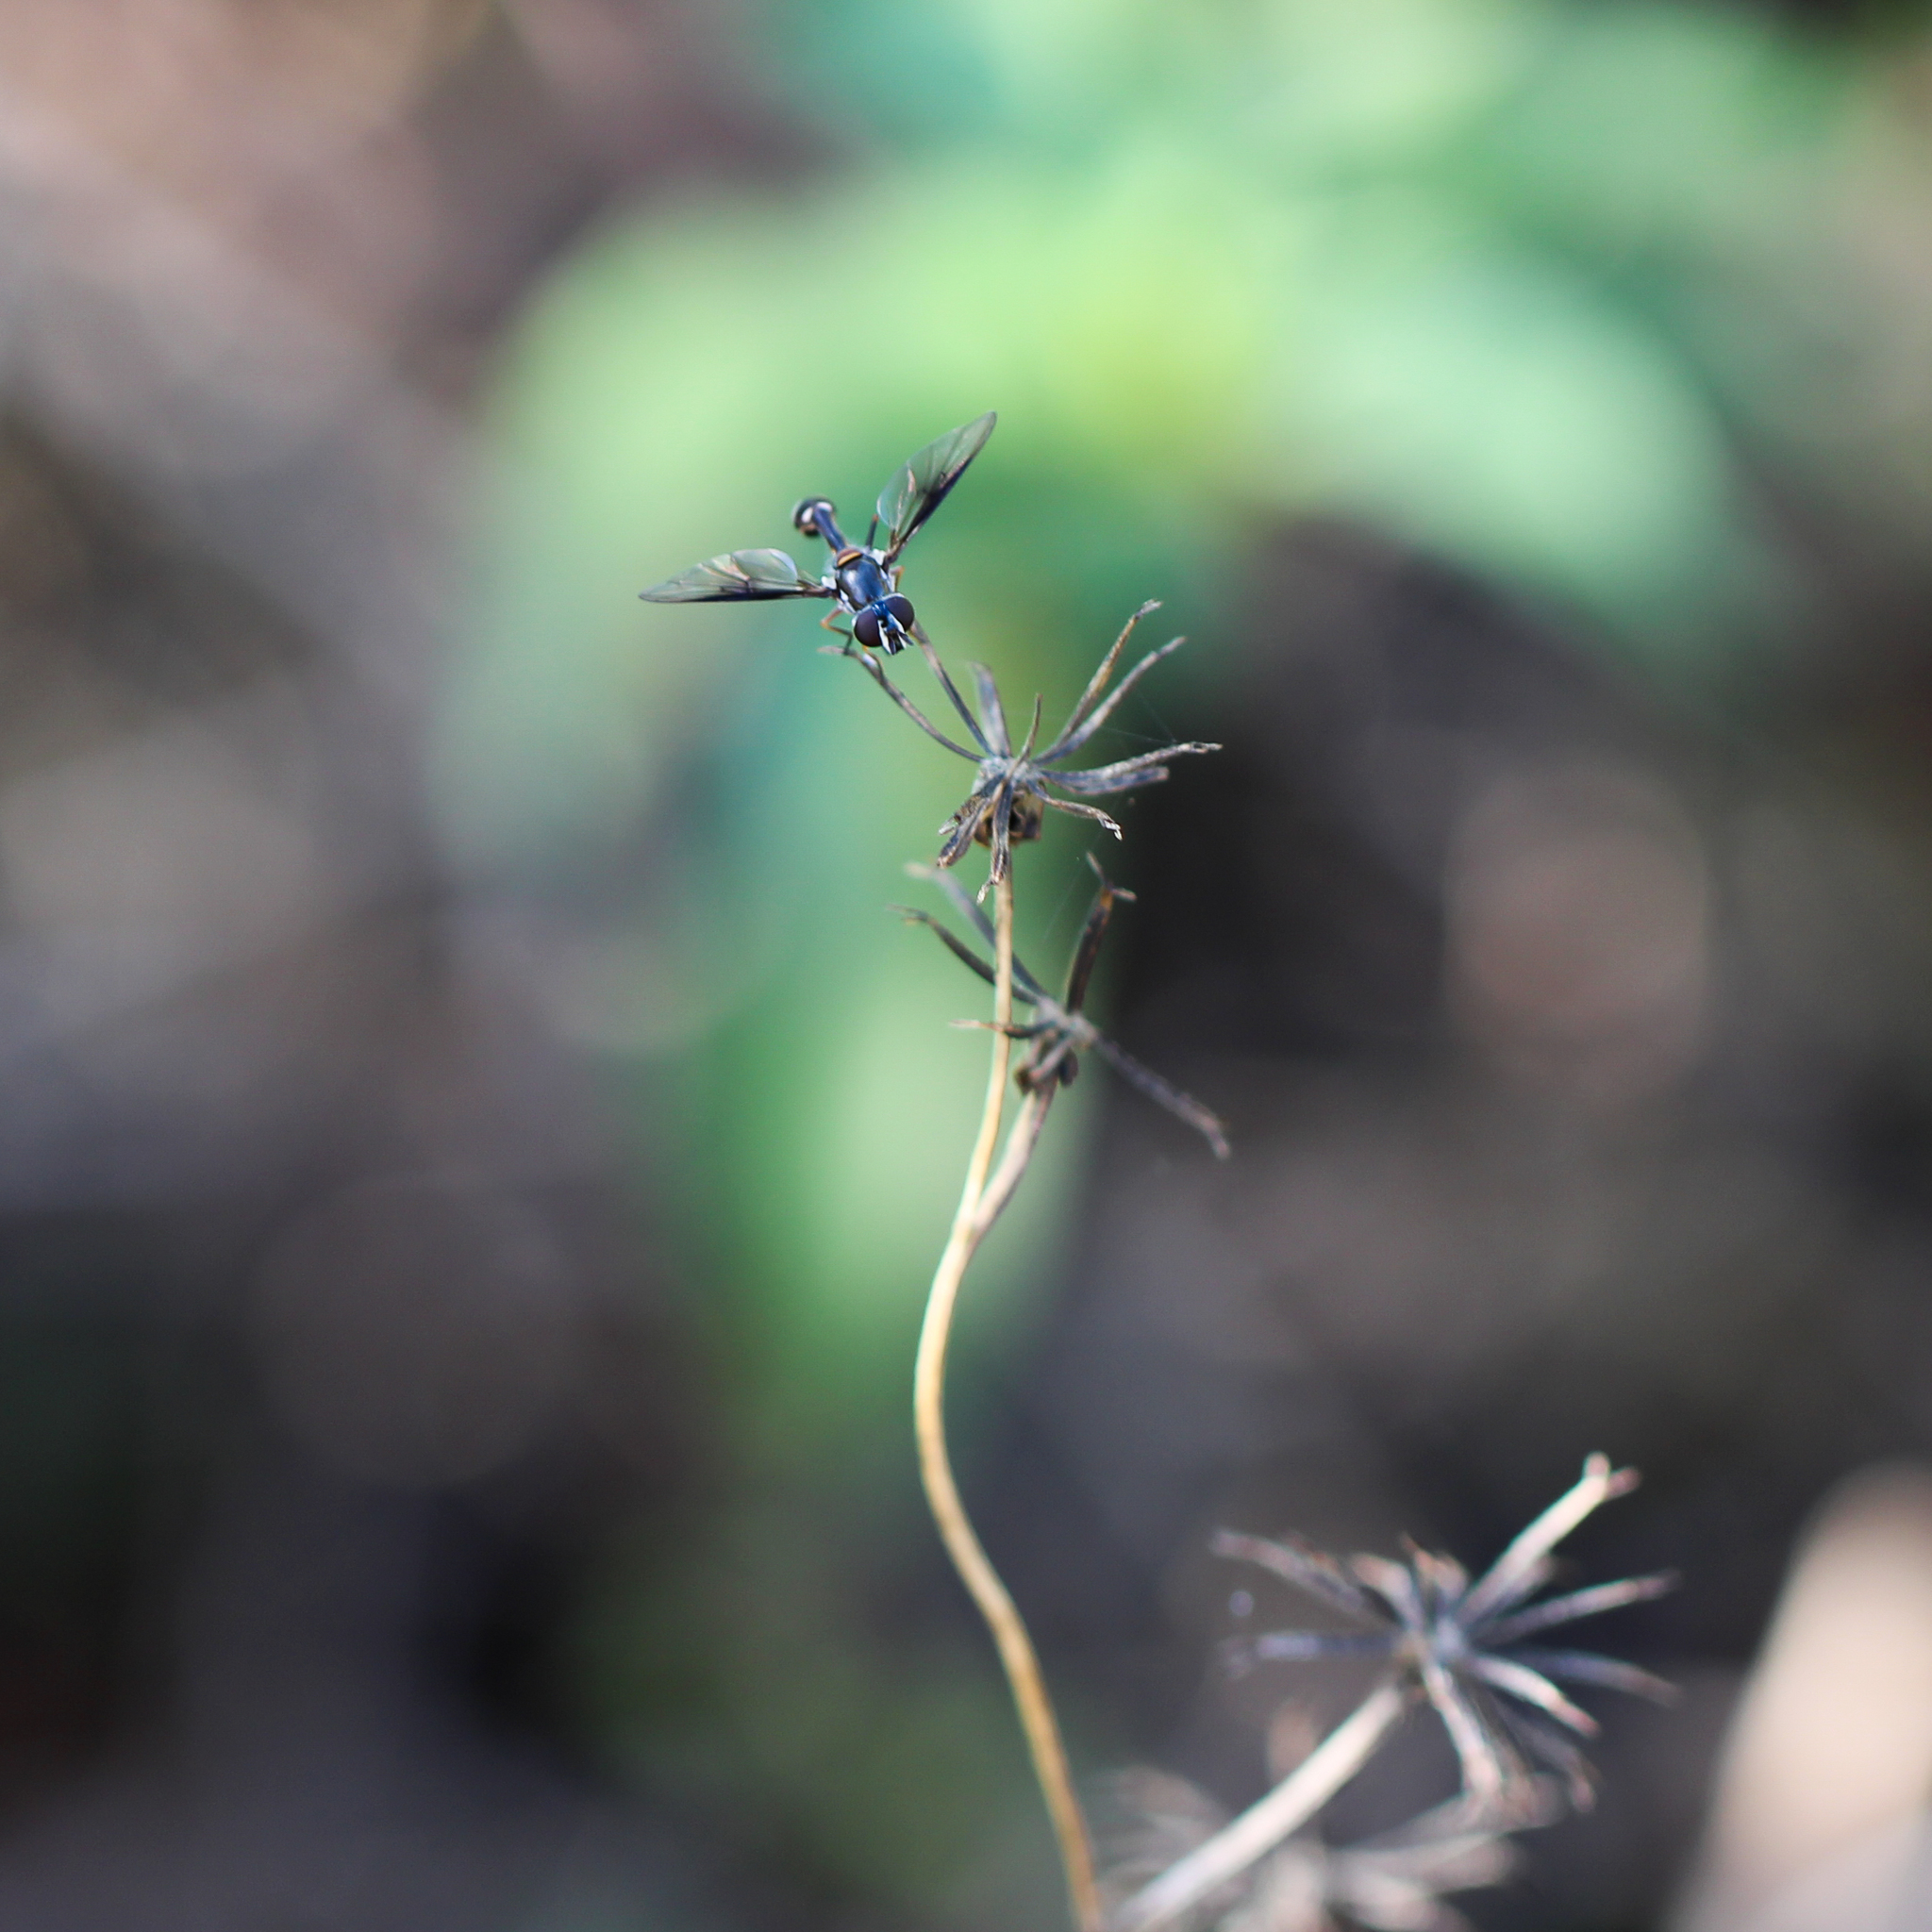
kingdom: Animalia
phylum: Arthropoda
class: Insecta
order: Diptera
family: Syrphidae
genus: Dioprosopa
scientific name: Dioprosopa clavatus
